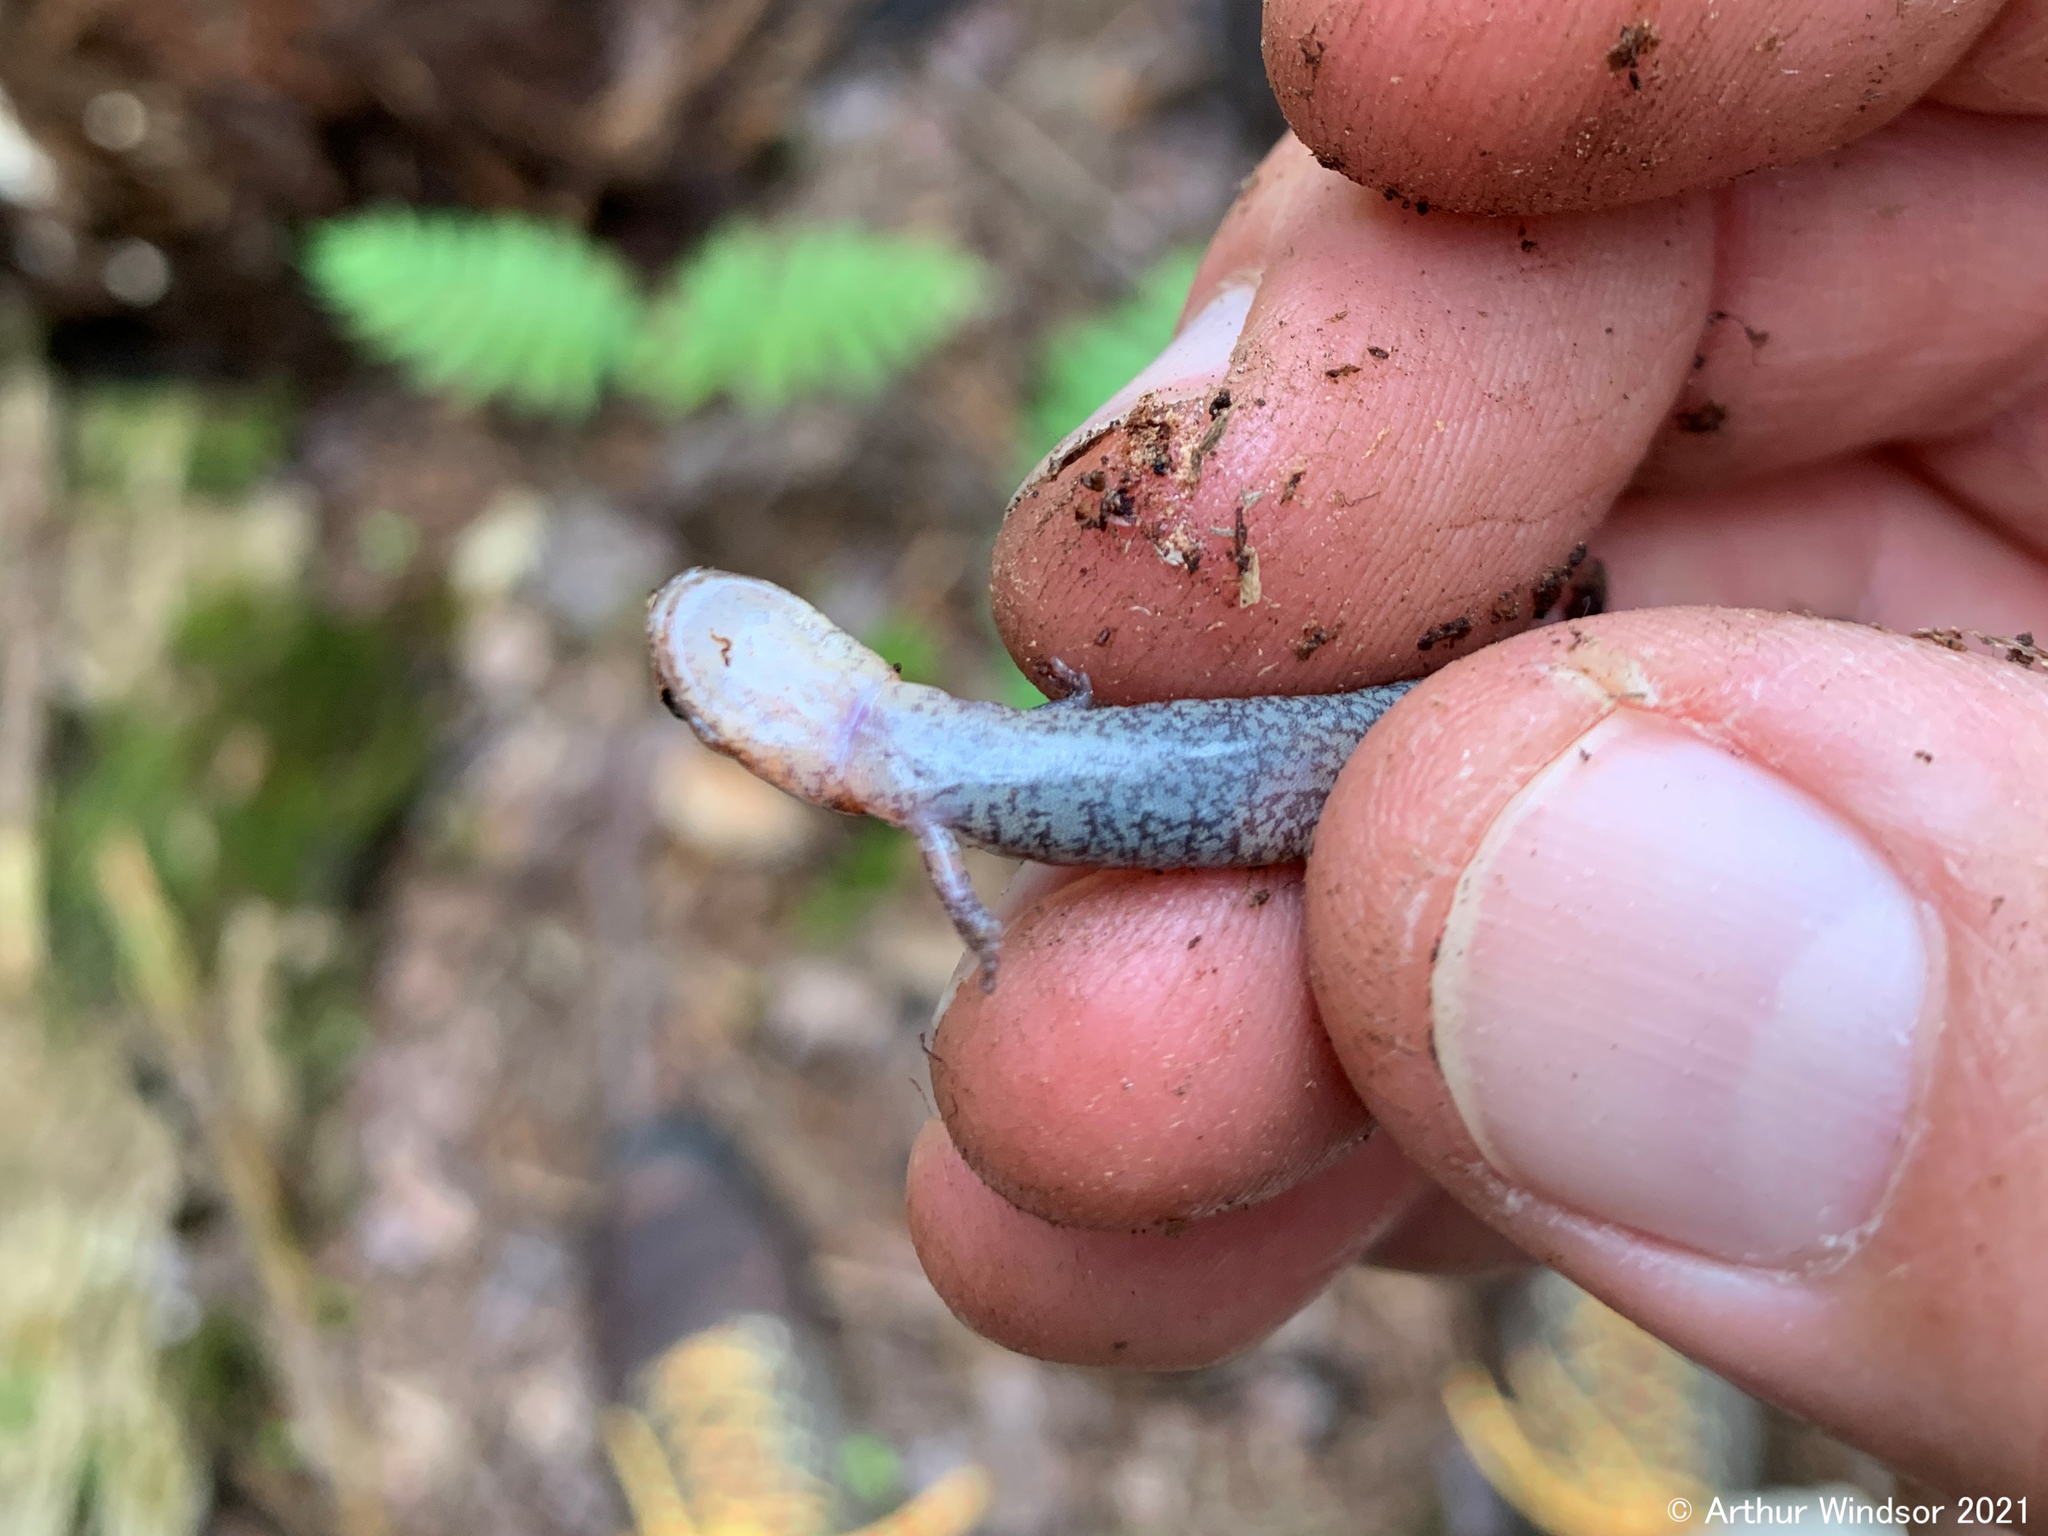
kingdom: Animalia
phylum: Chordata
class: Amphibia
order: Caudata
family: Plethodontidae
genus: Plethodon
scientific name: Plethodon cinereus
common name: Redback salamander
